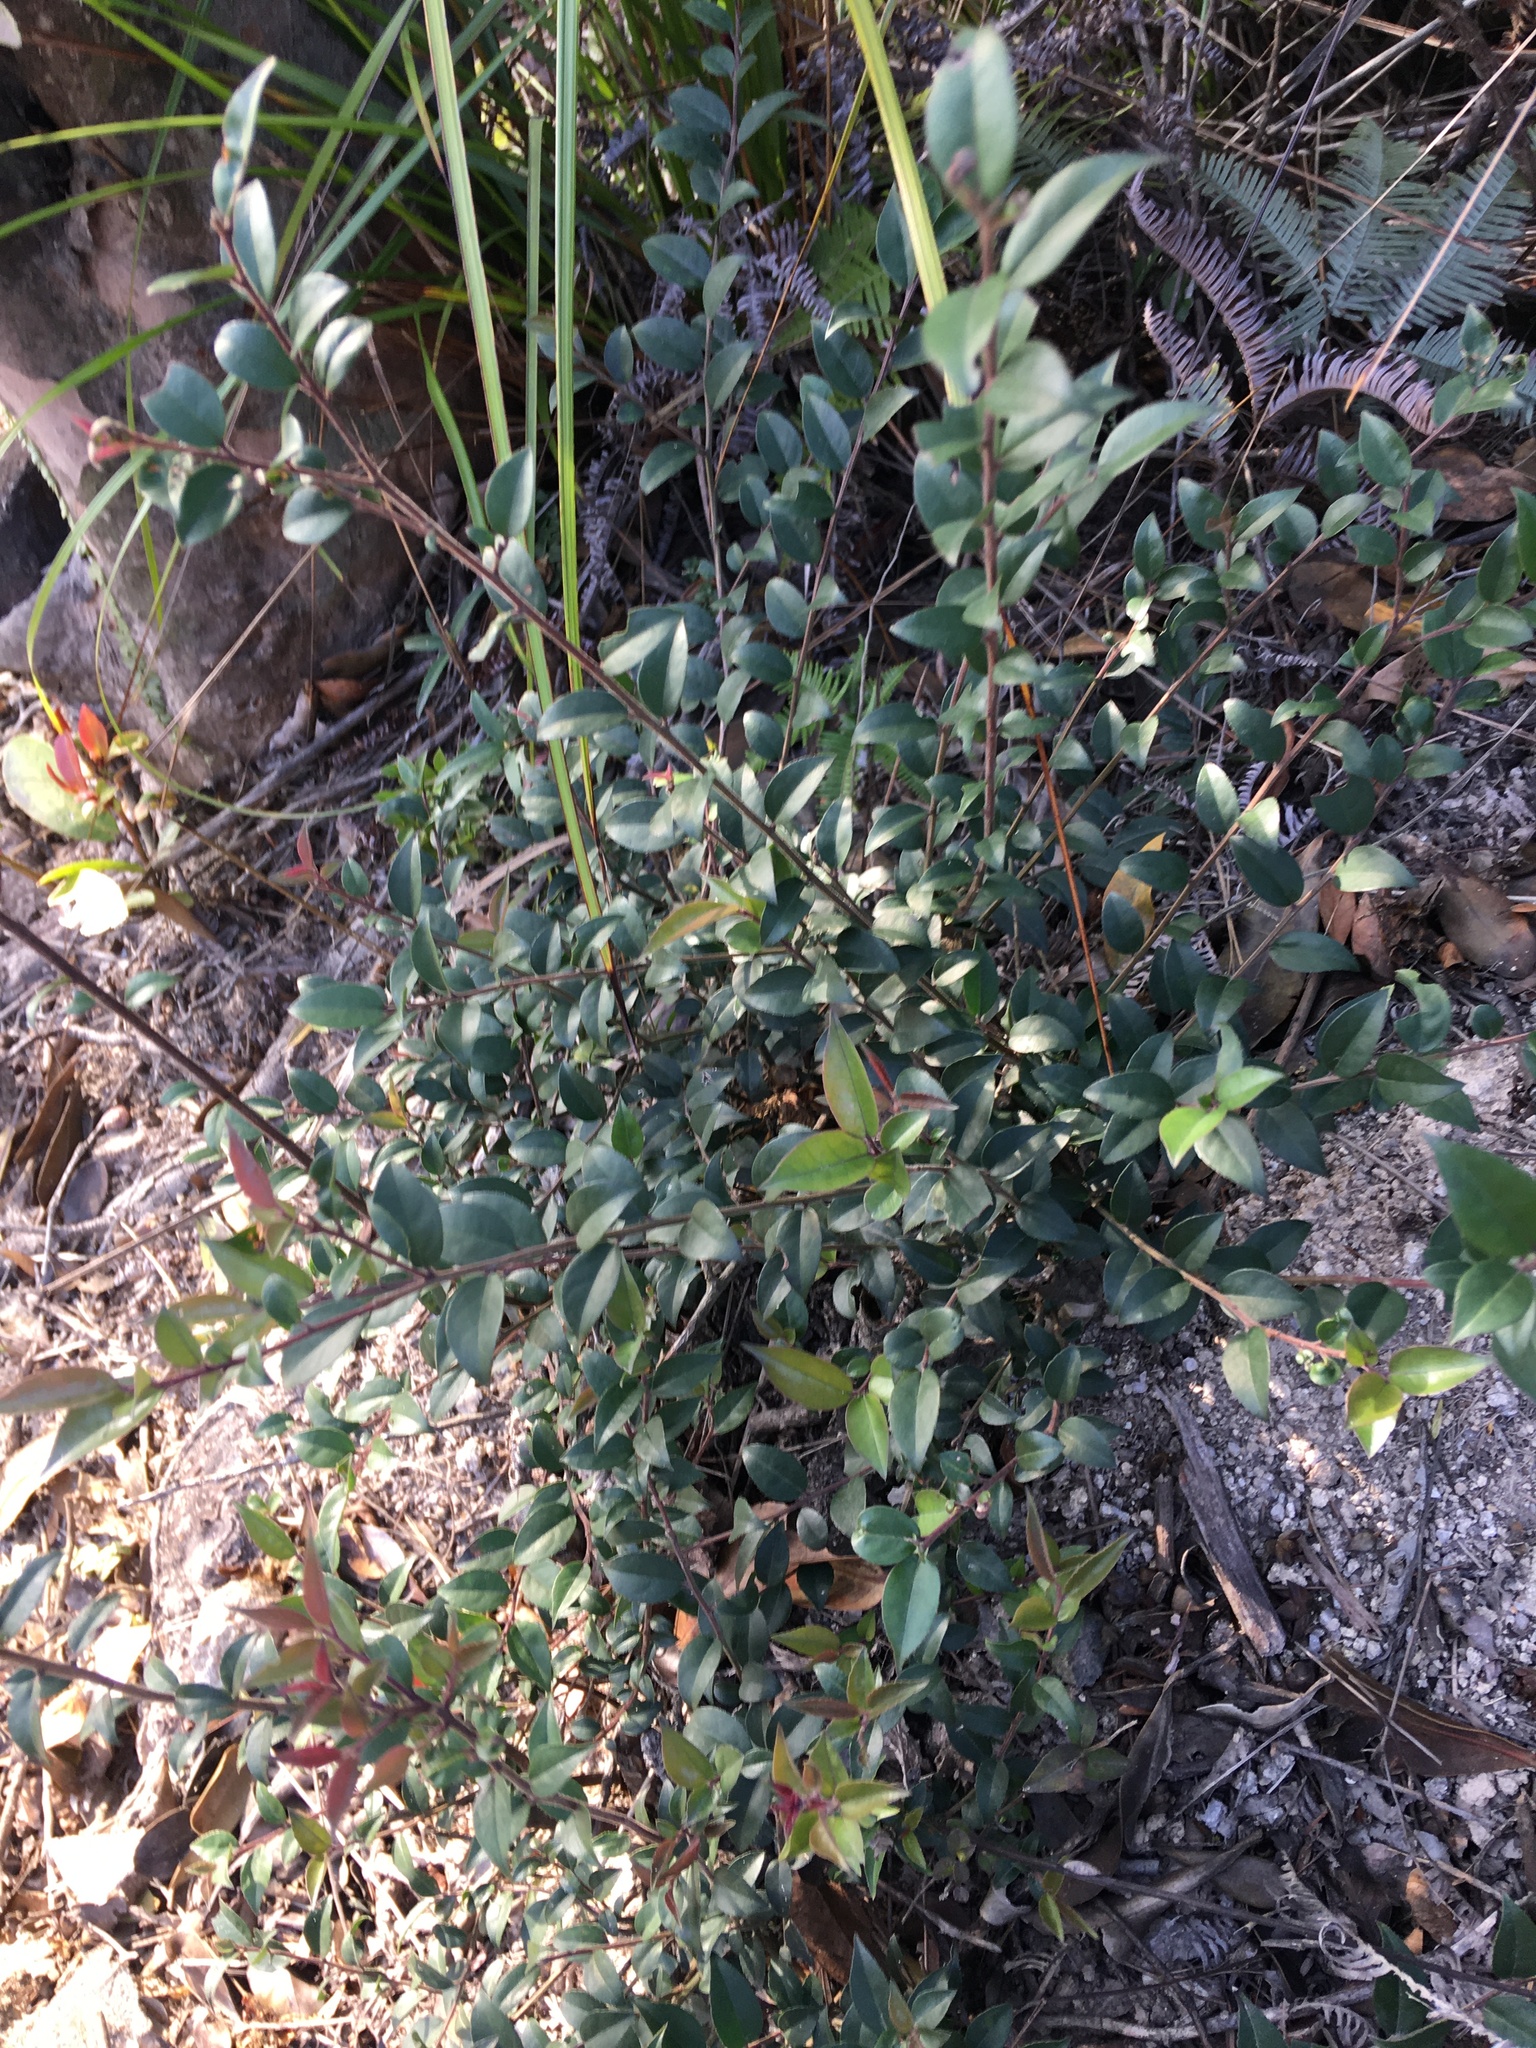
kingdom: Plantae
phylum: Tracheophyta
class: Magnoliopsida
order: Aquifoliales
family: Aquifoliaceae
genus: Ilex
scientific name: Ilex pubescens
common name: Pubescent holly
